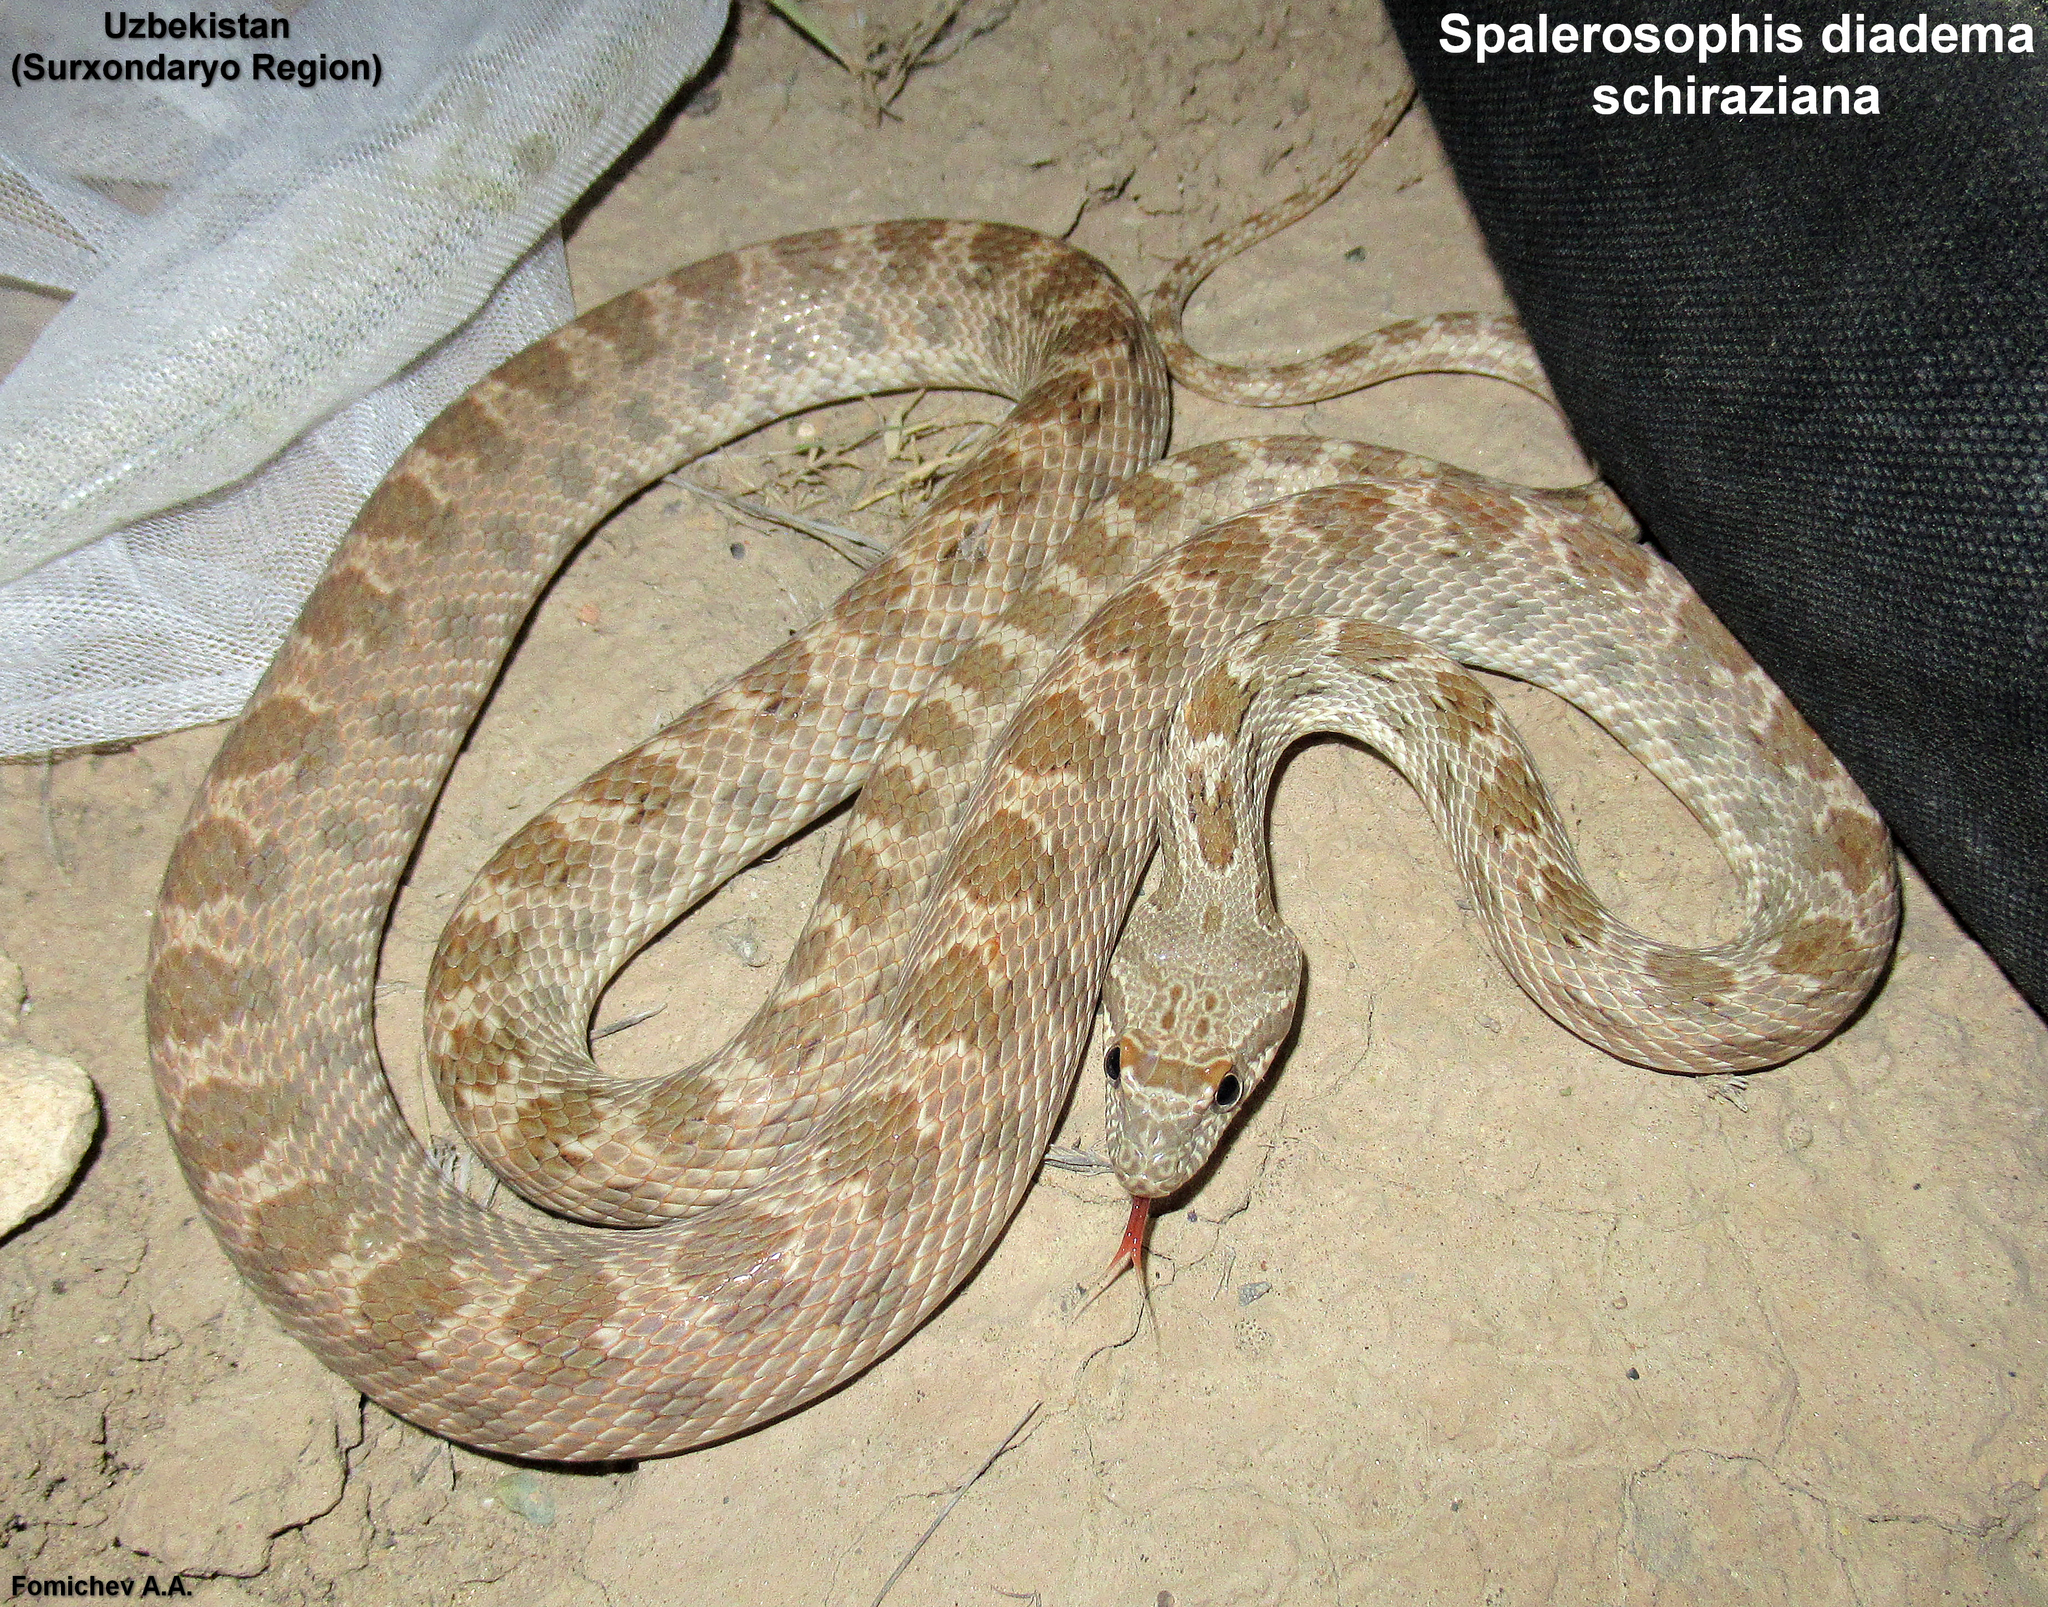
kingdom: Animalia
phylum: Chordata
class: Squamata
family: Colubridae
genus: Spalerosophis
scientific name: Spalerosophis diadema
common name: Diadem snake
